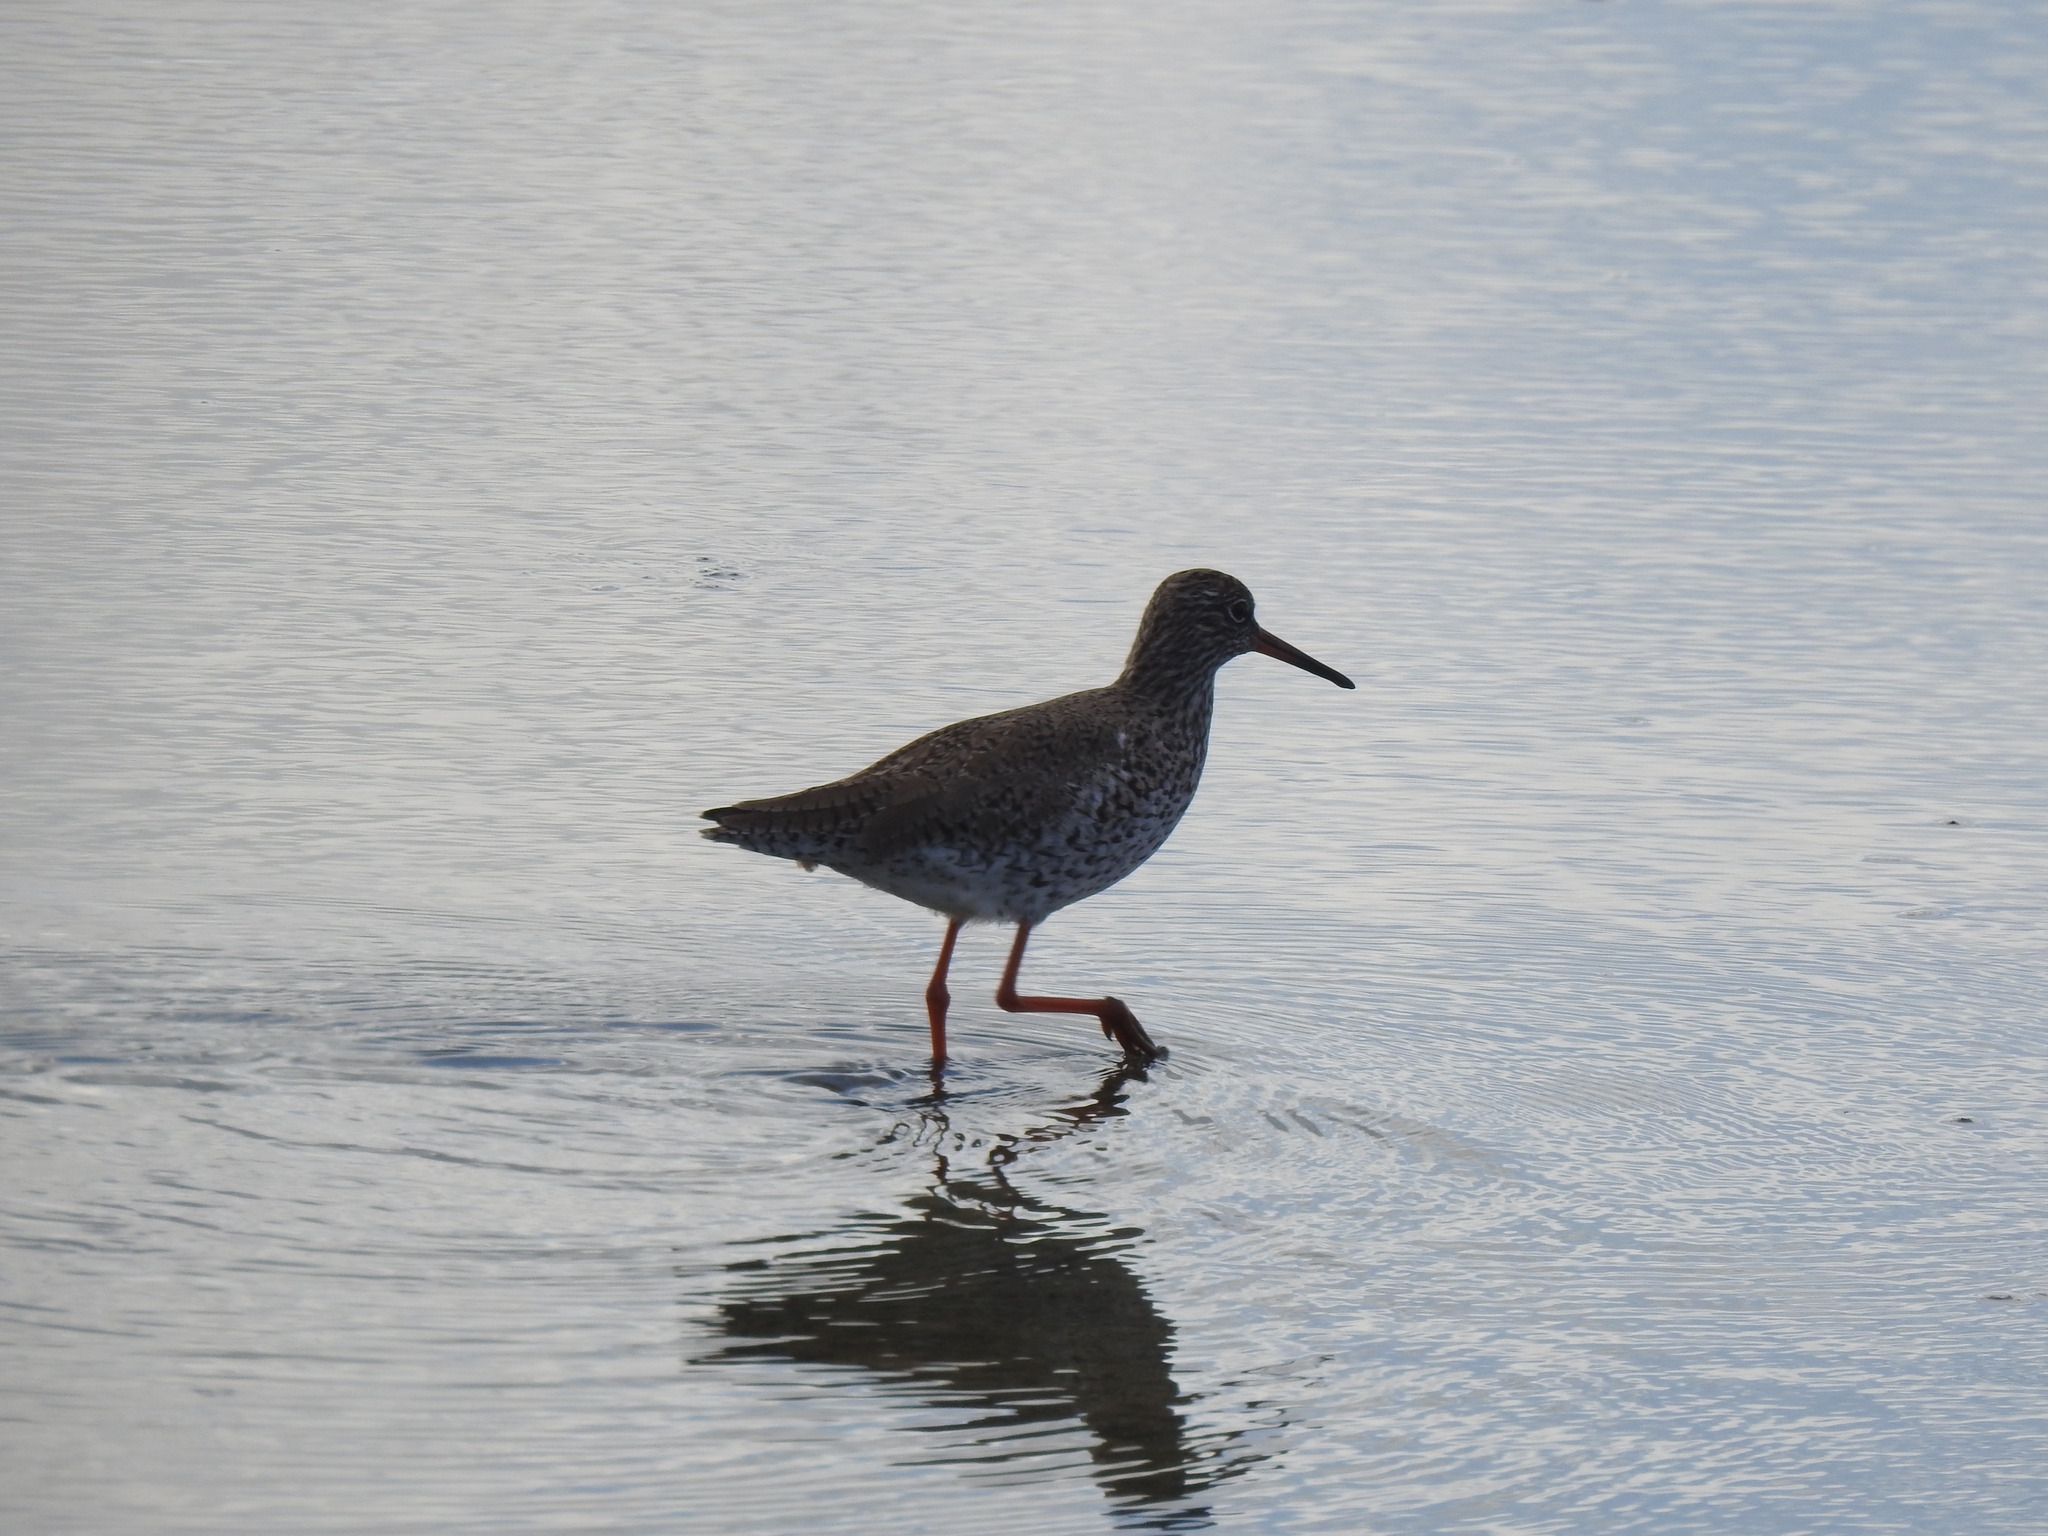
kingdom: Animalia
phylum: Chordata
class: Aves
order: Charadriiformes
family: Scolopacidae
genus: Tringa
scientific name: Tringa totanus
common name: Common redshank
